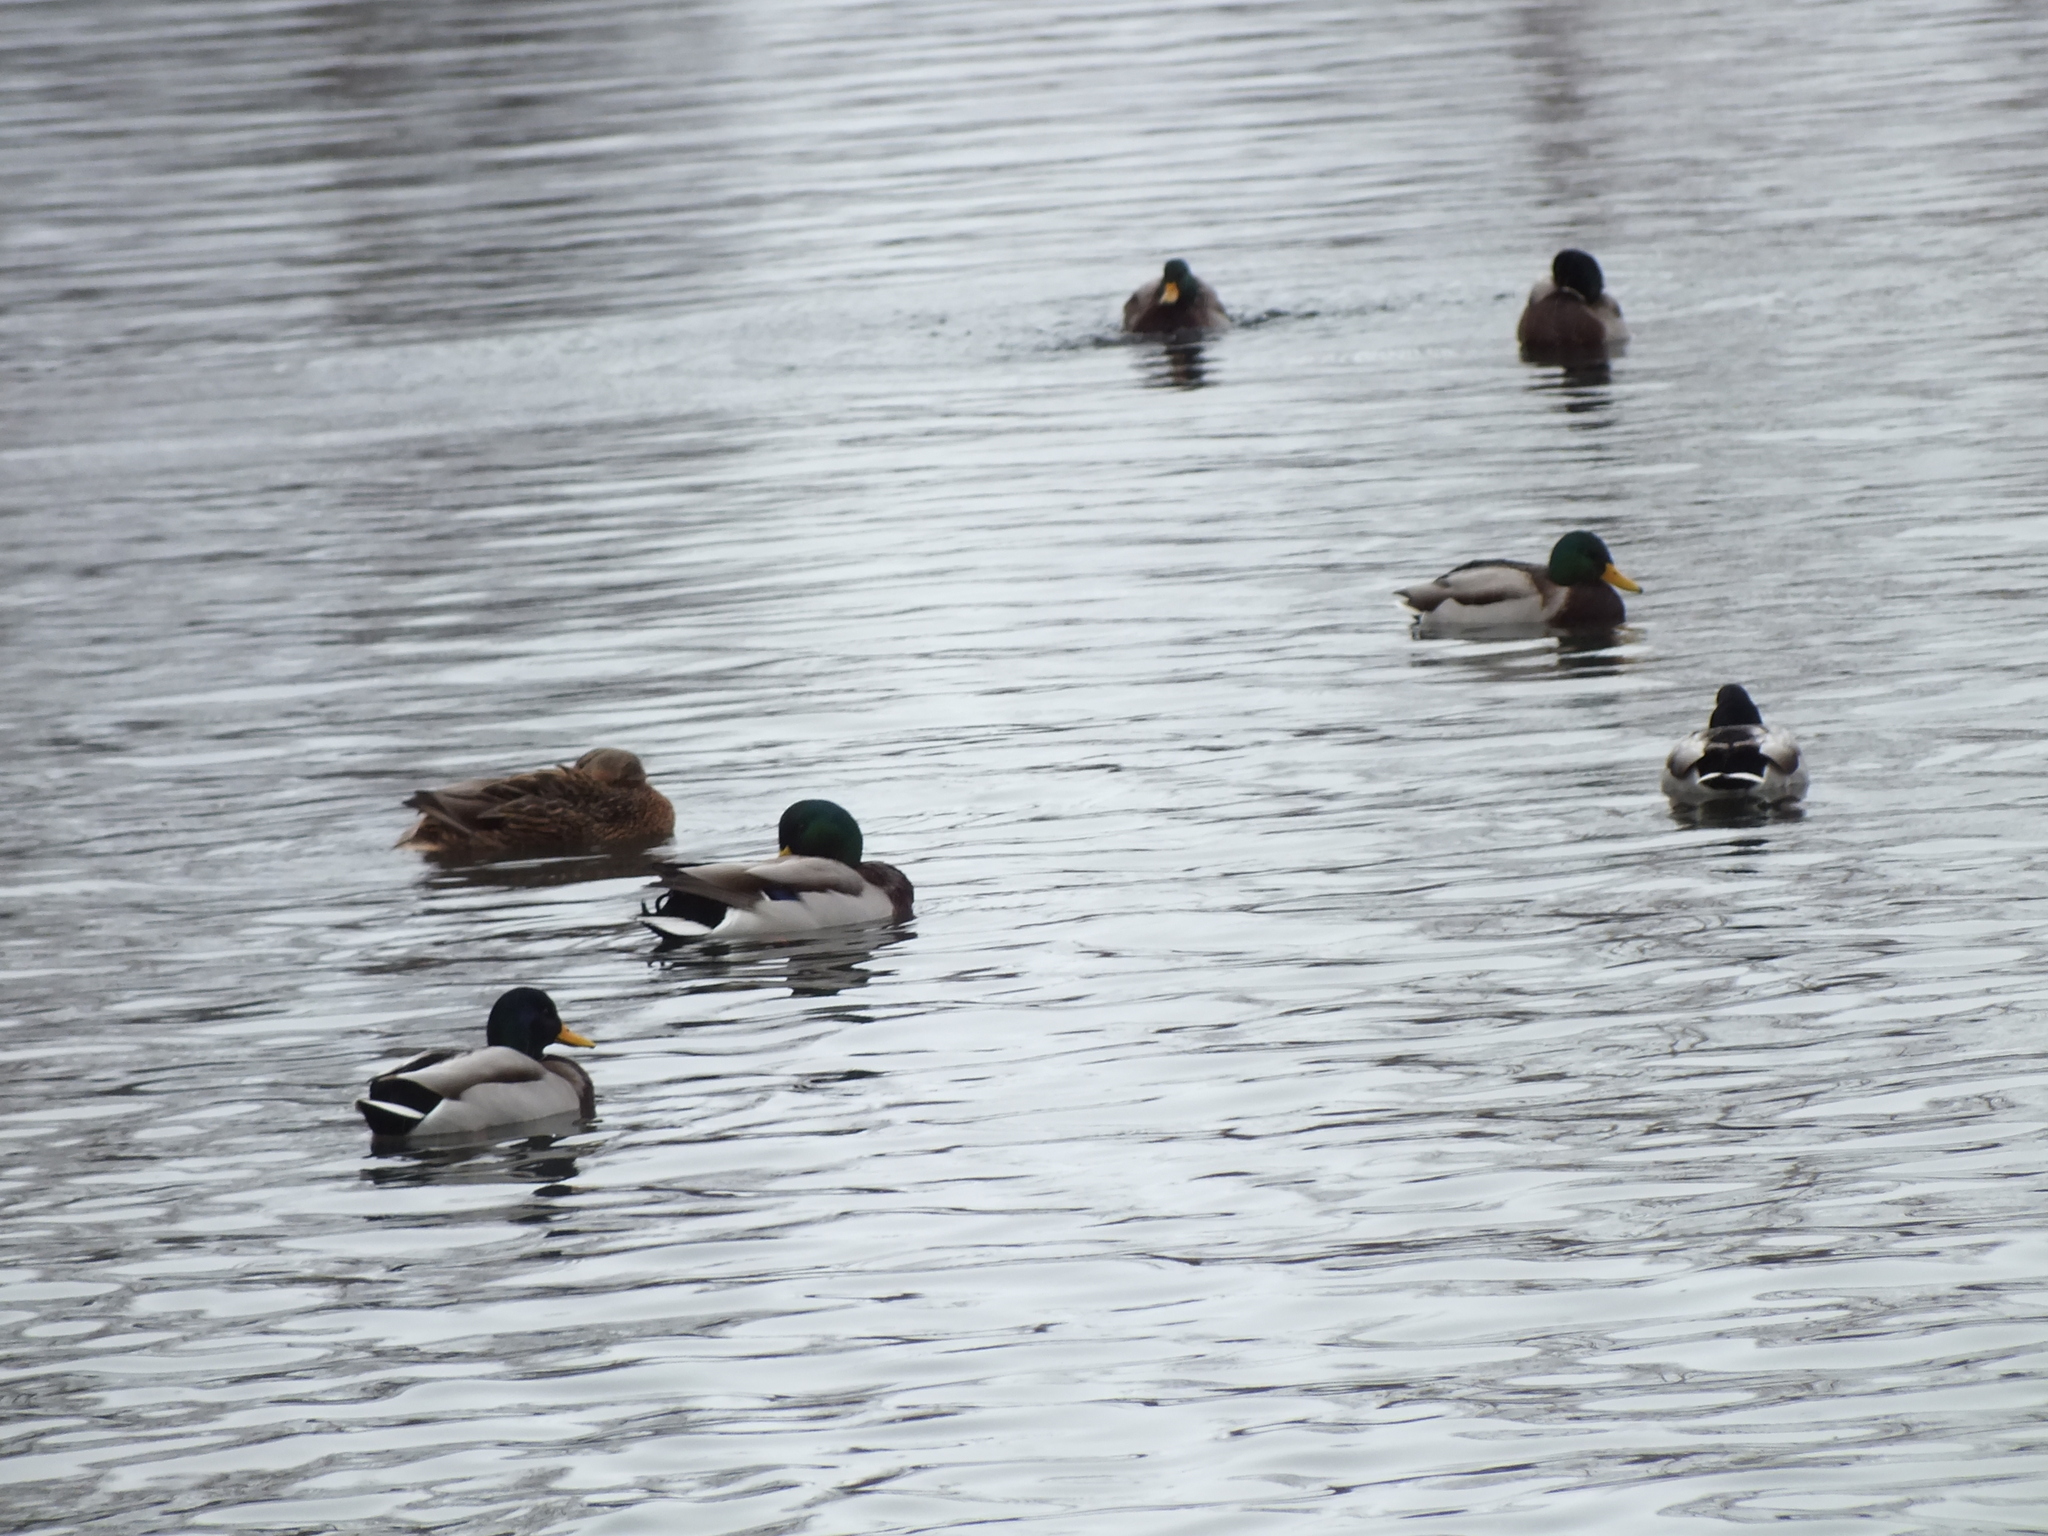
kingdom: Animalia
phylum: Chordata
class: Aves
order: Anseriformes
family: Anatidae
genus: Anas
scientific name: Anas platyrhynchos
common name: Mallard
